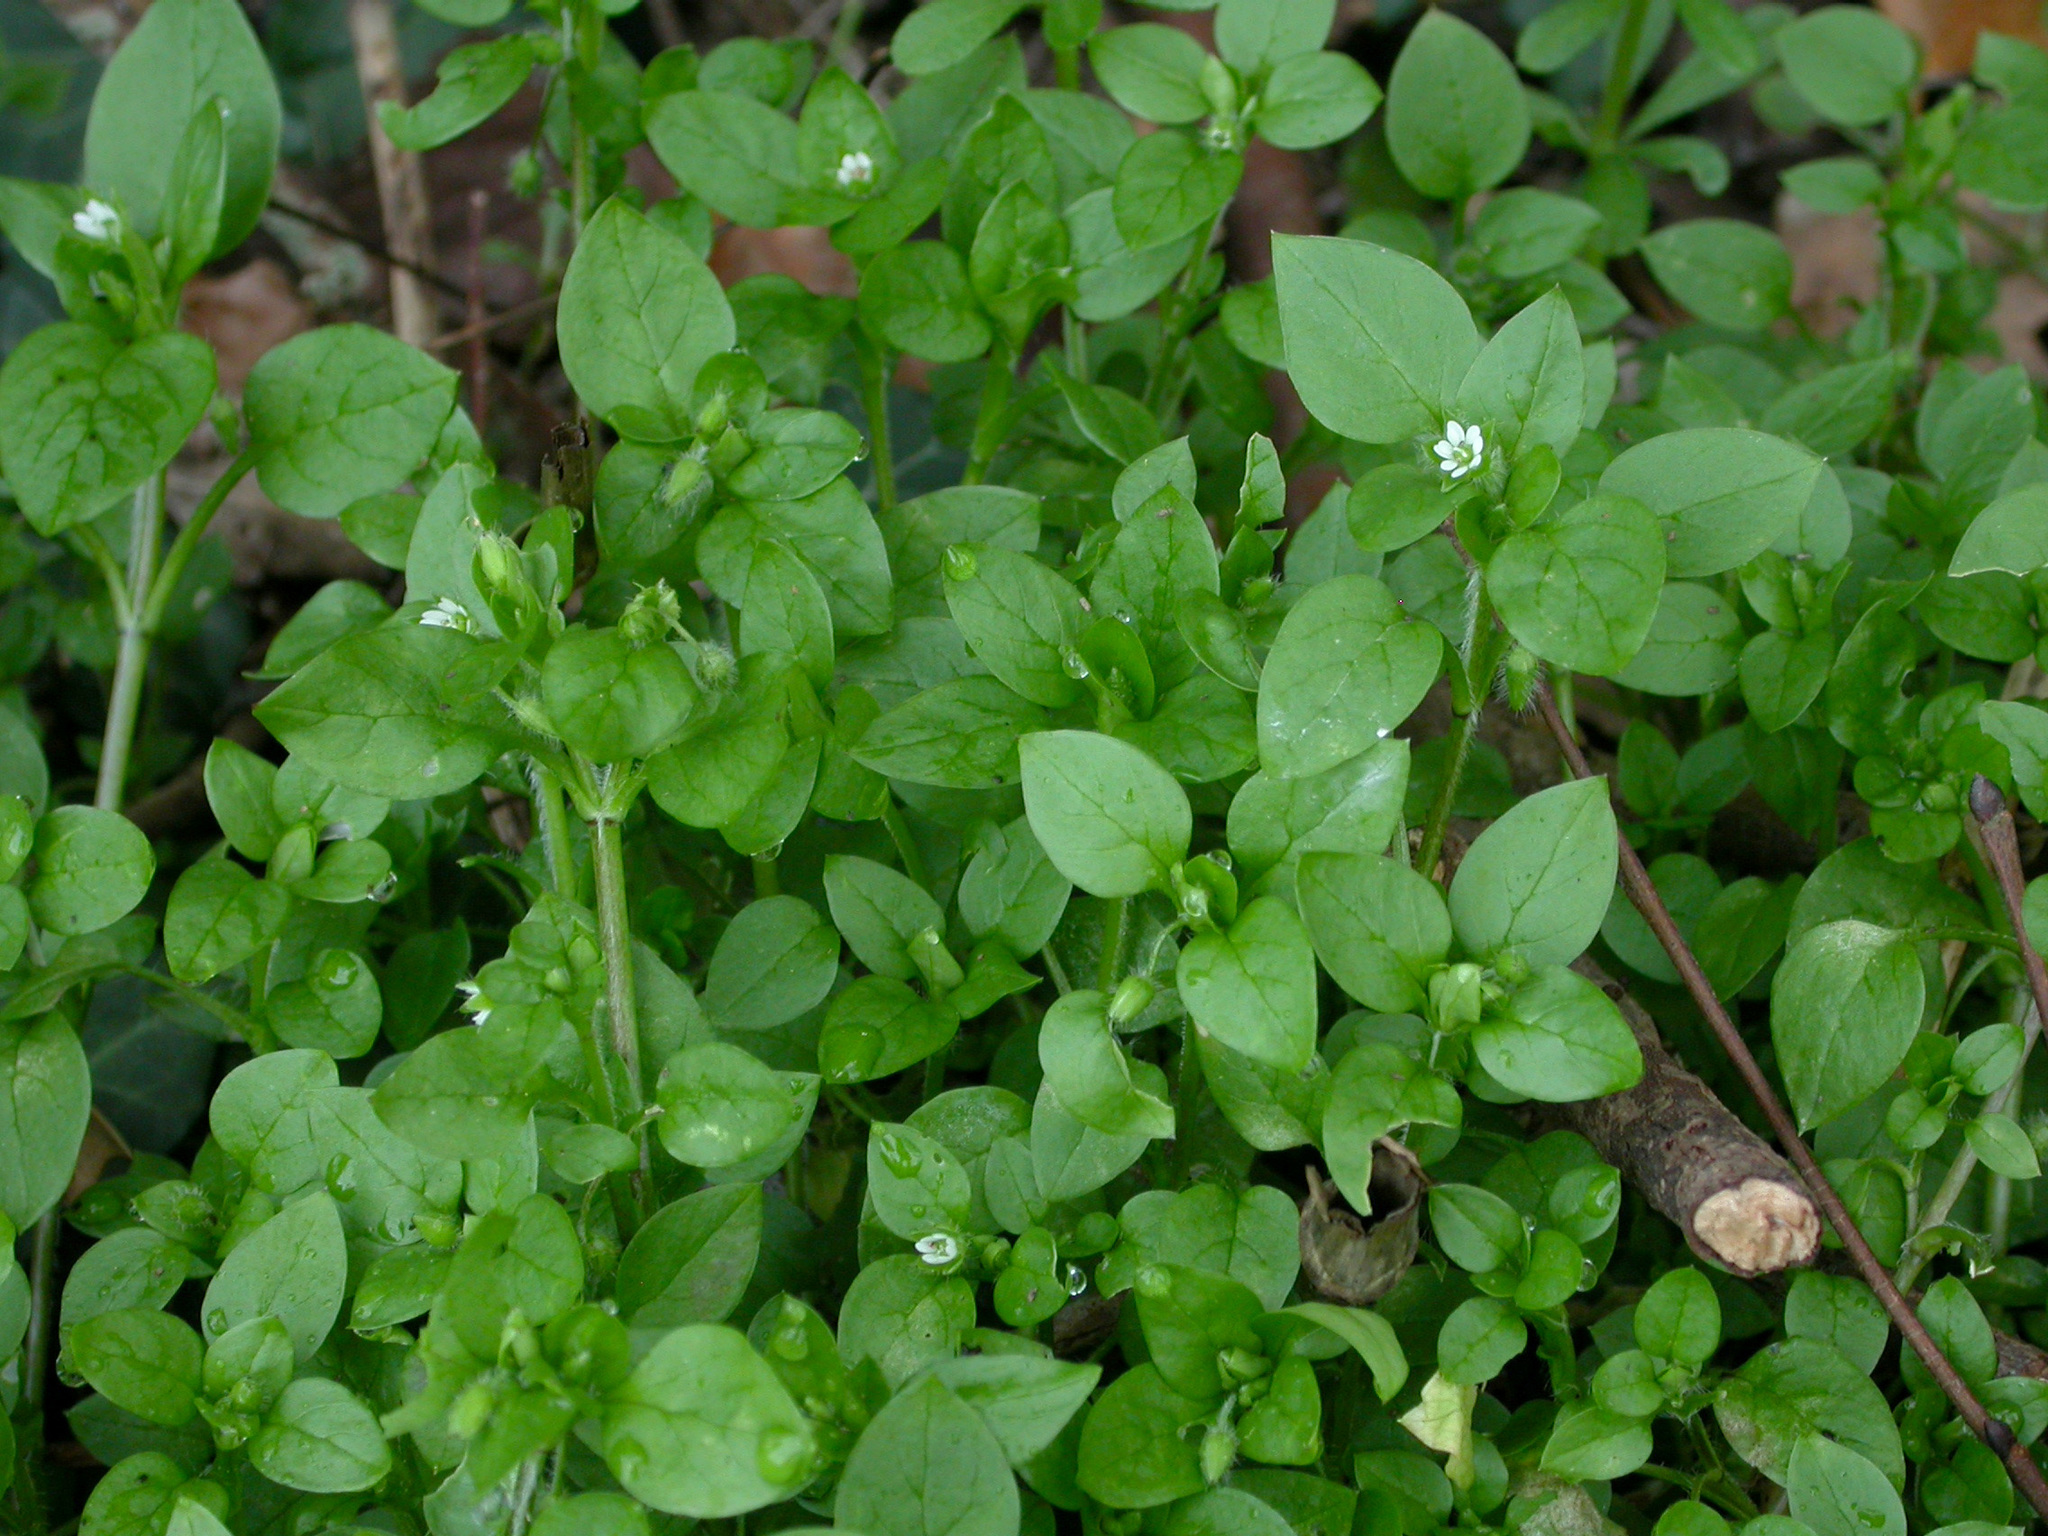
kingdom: Plantae
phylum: Tracheophyta
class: Magnoliopsida
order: Caryophyllales
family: Caryophyllaceae
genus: Stellaria
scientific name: Stellaria media
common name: Common chickweed
